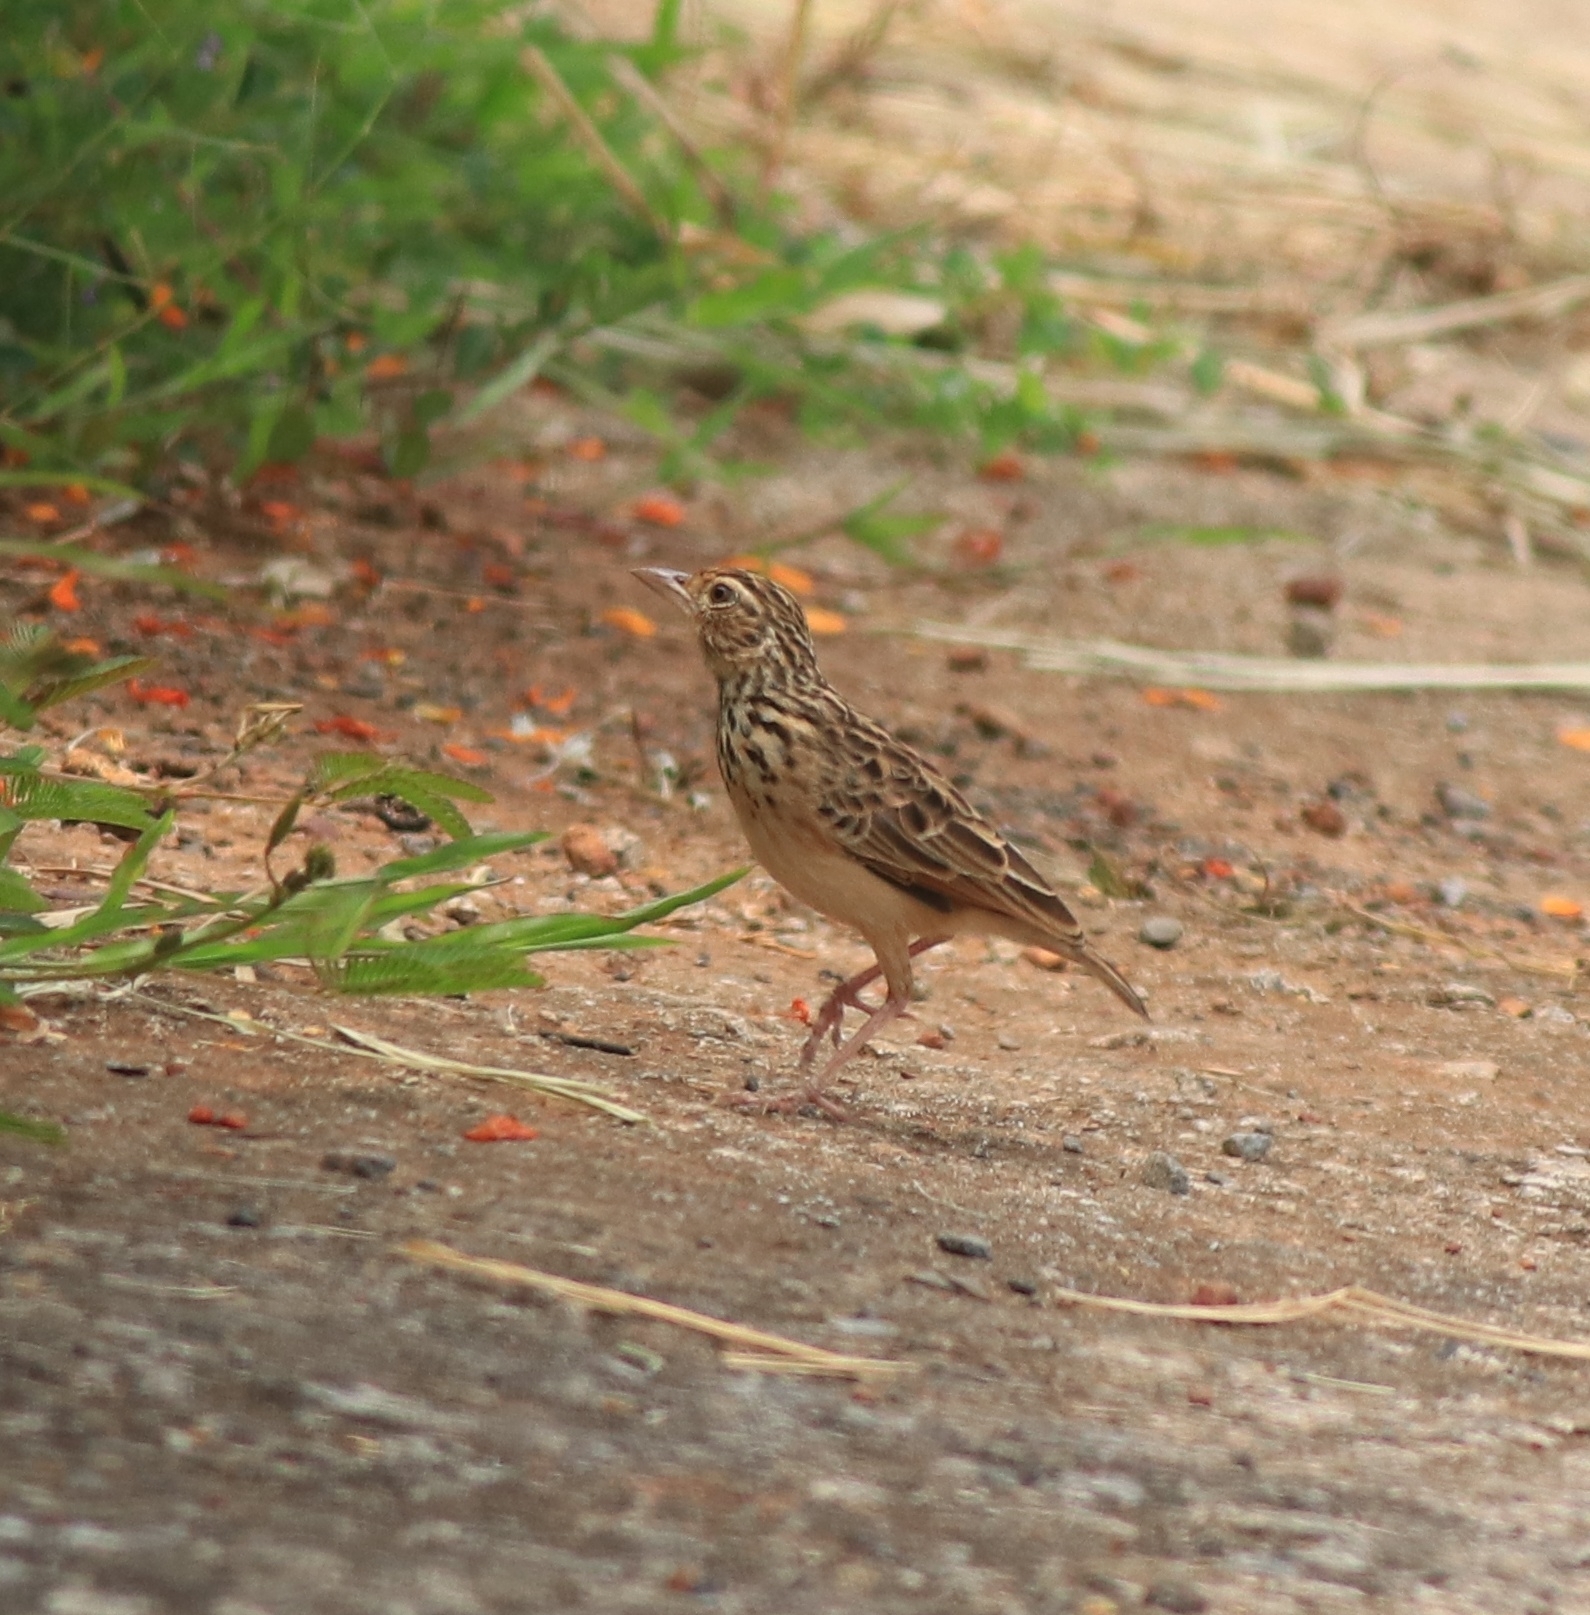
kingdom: Animalia
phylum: Chordata
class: Aves
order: Passeriformes
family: Alaudidae
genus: Mirafra
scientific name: Mirafra affinis
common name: Jerdon's bushlark
